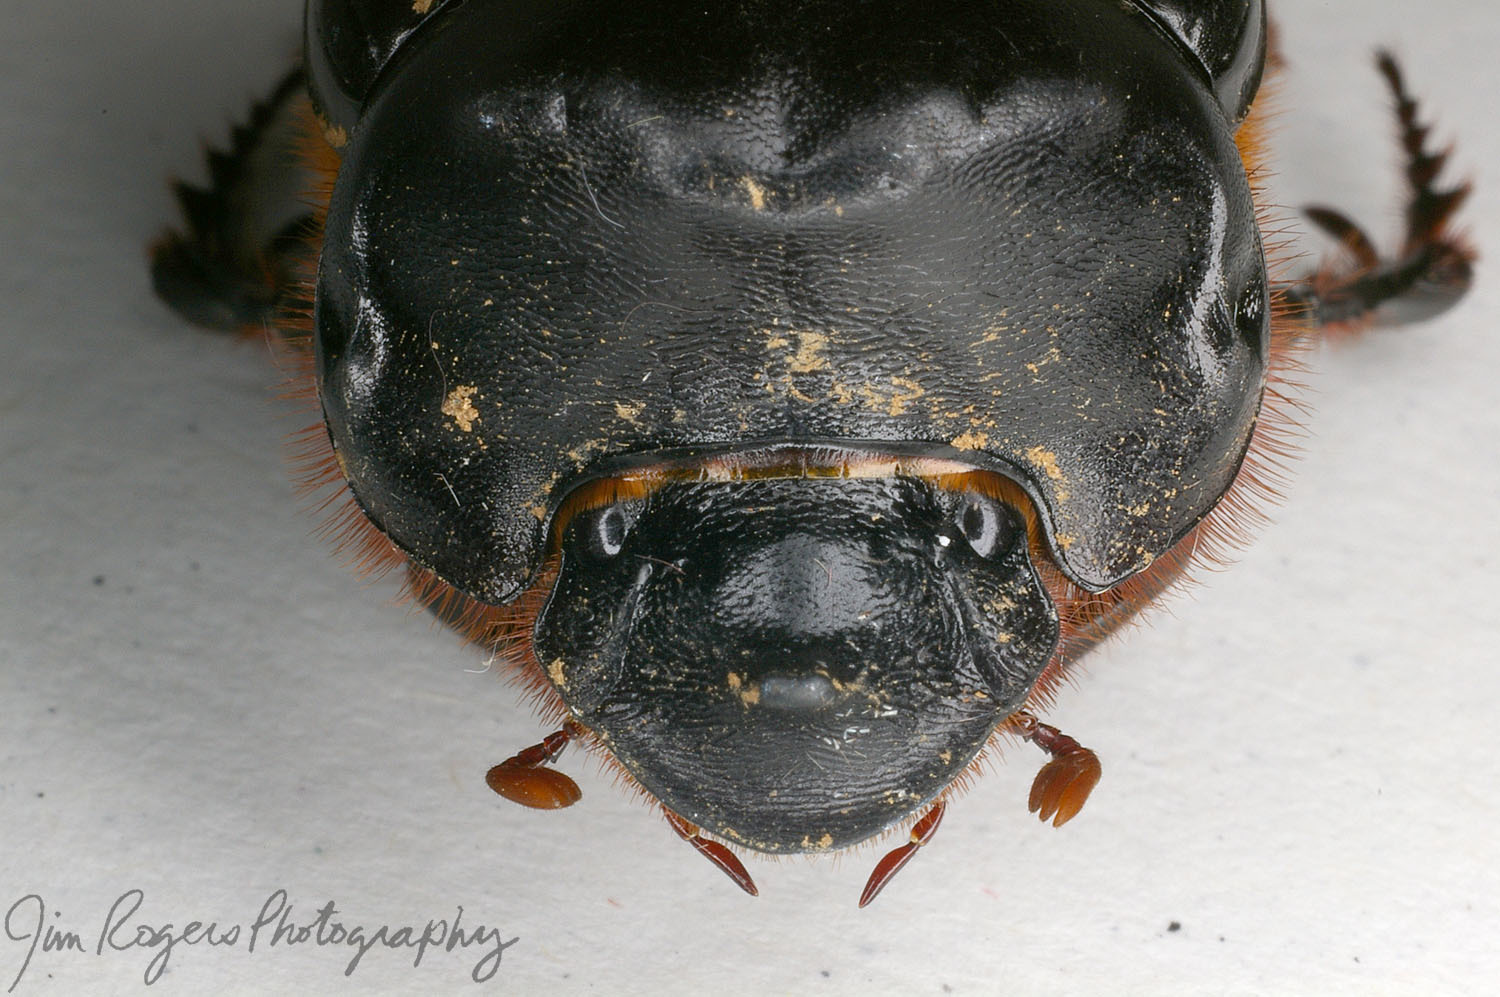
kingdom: Animalia
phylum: Arthropoda
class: Insecta
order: Coleoptera
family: Scarabaeidae
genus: Dichotomius
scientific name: Dichotomius carolinus
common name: Carolina copris
